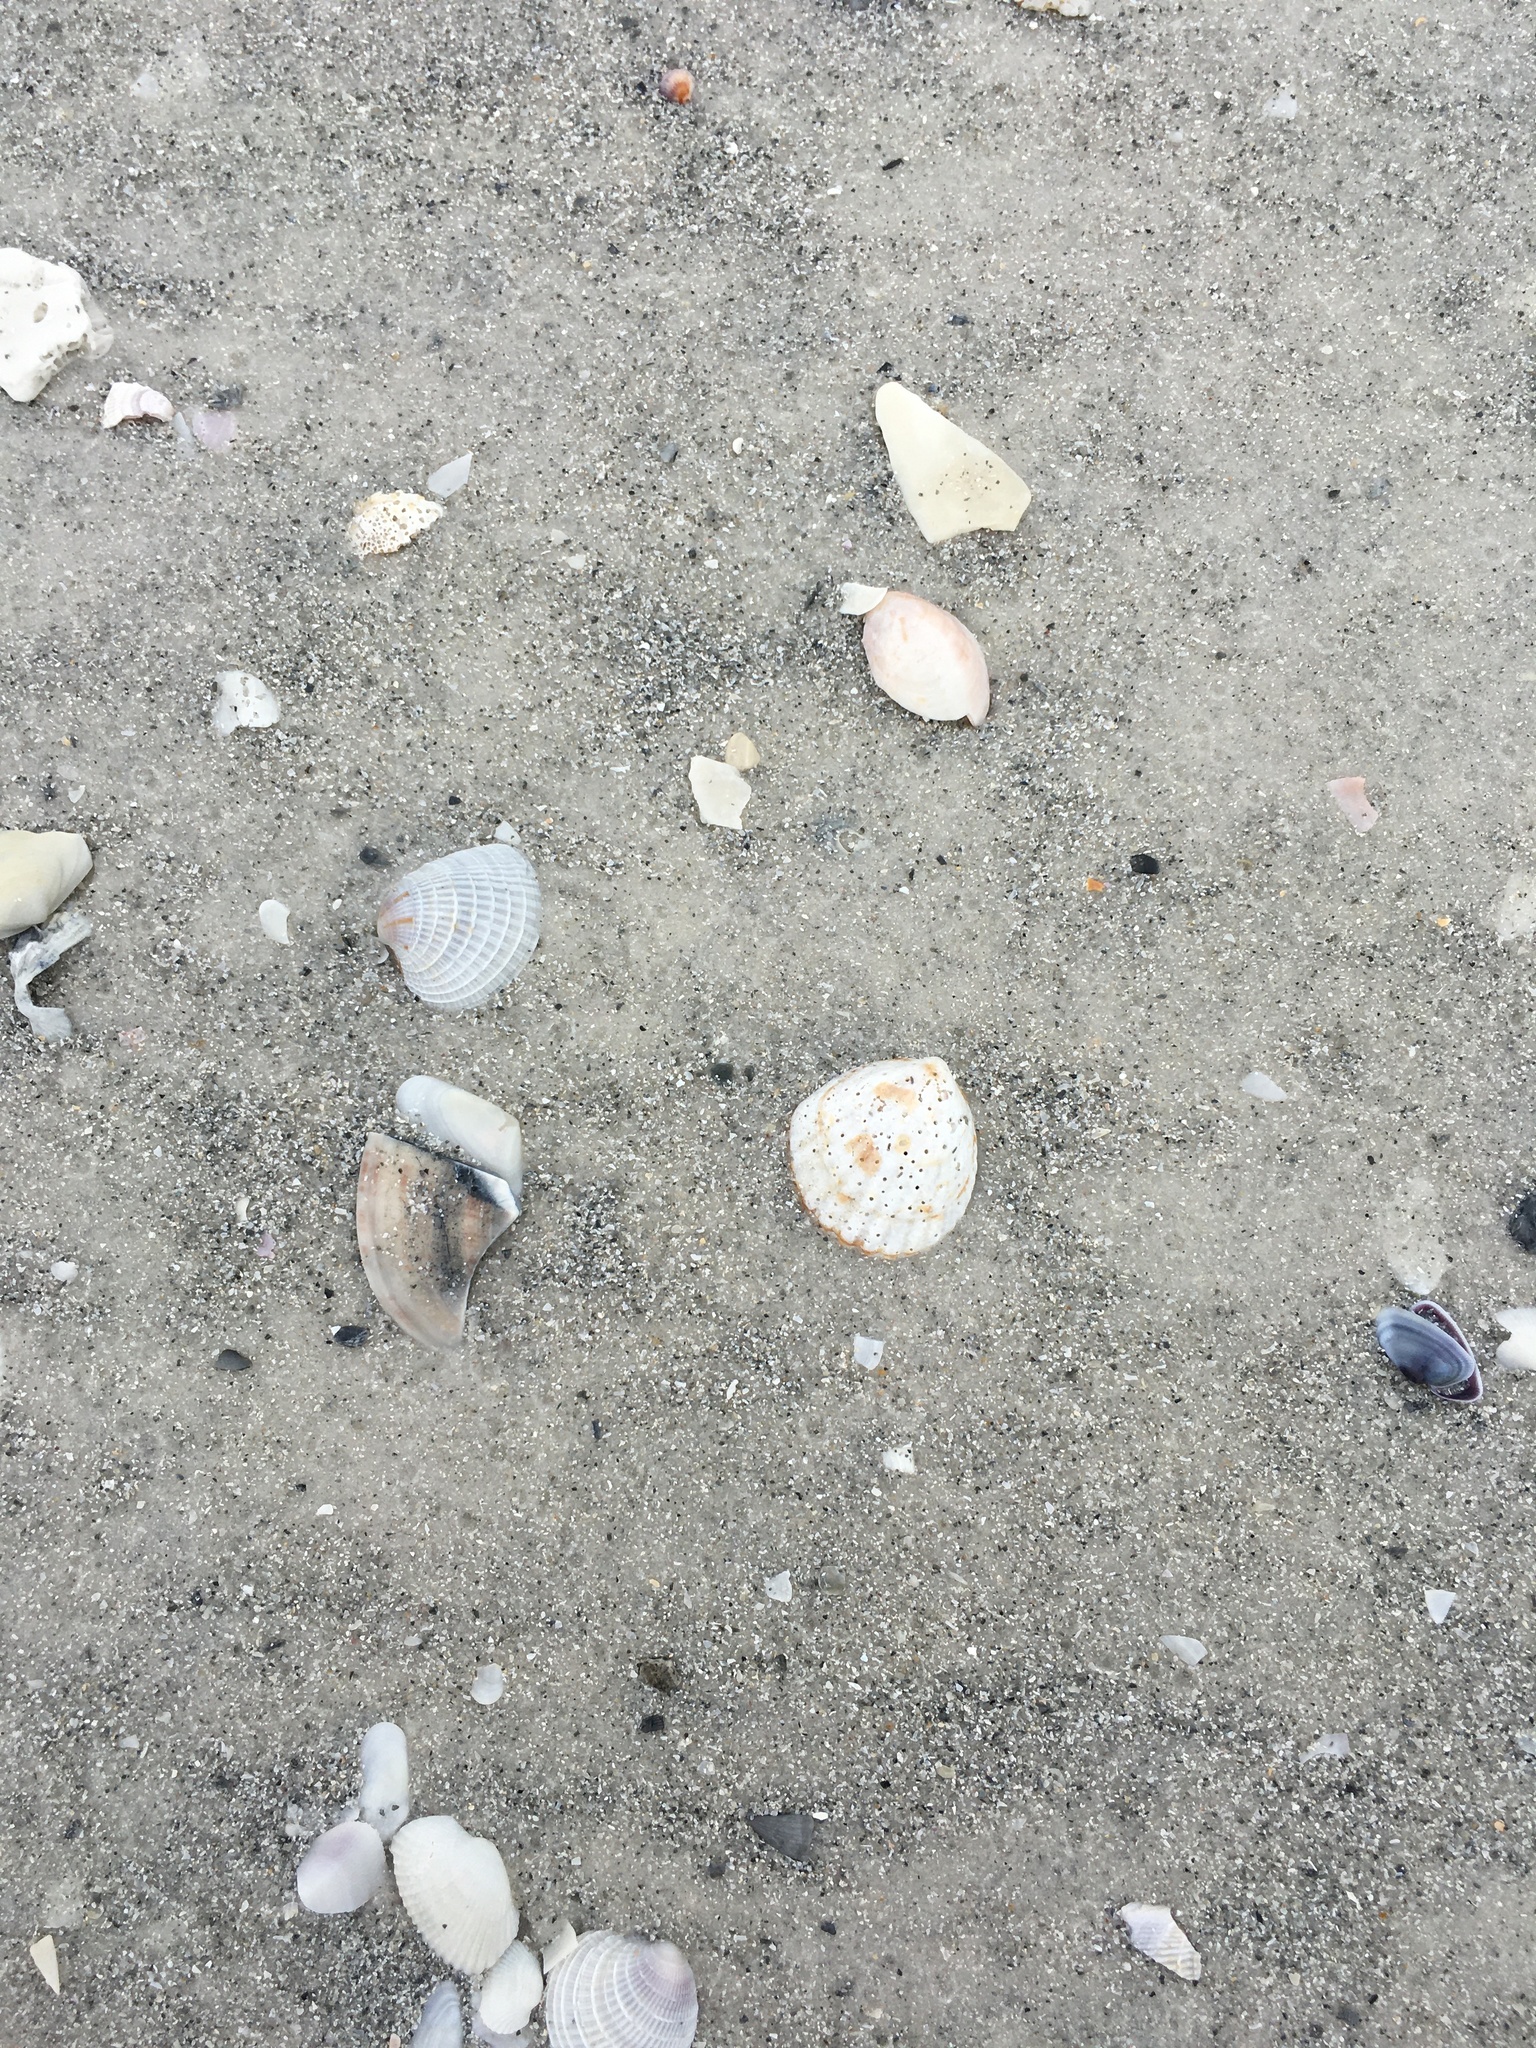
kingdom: Animalia
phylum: Mollusca
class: Bivalvia
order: Venerida
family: Veneridae
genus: Chione
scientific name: Chione elevata
